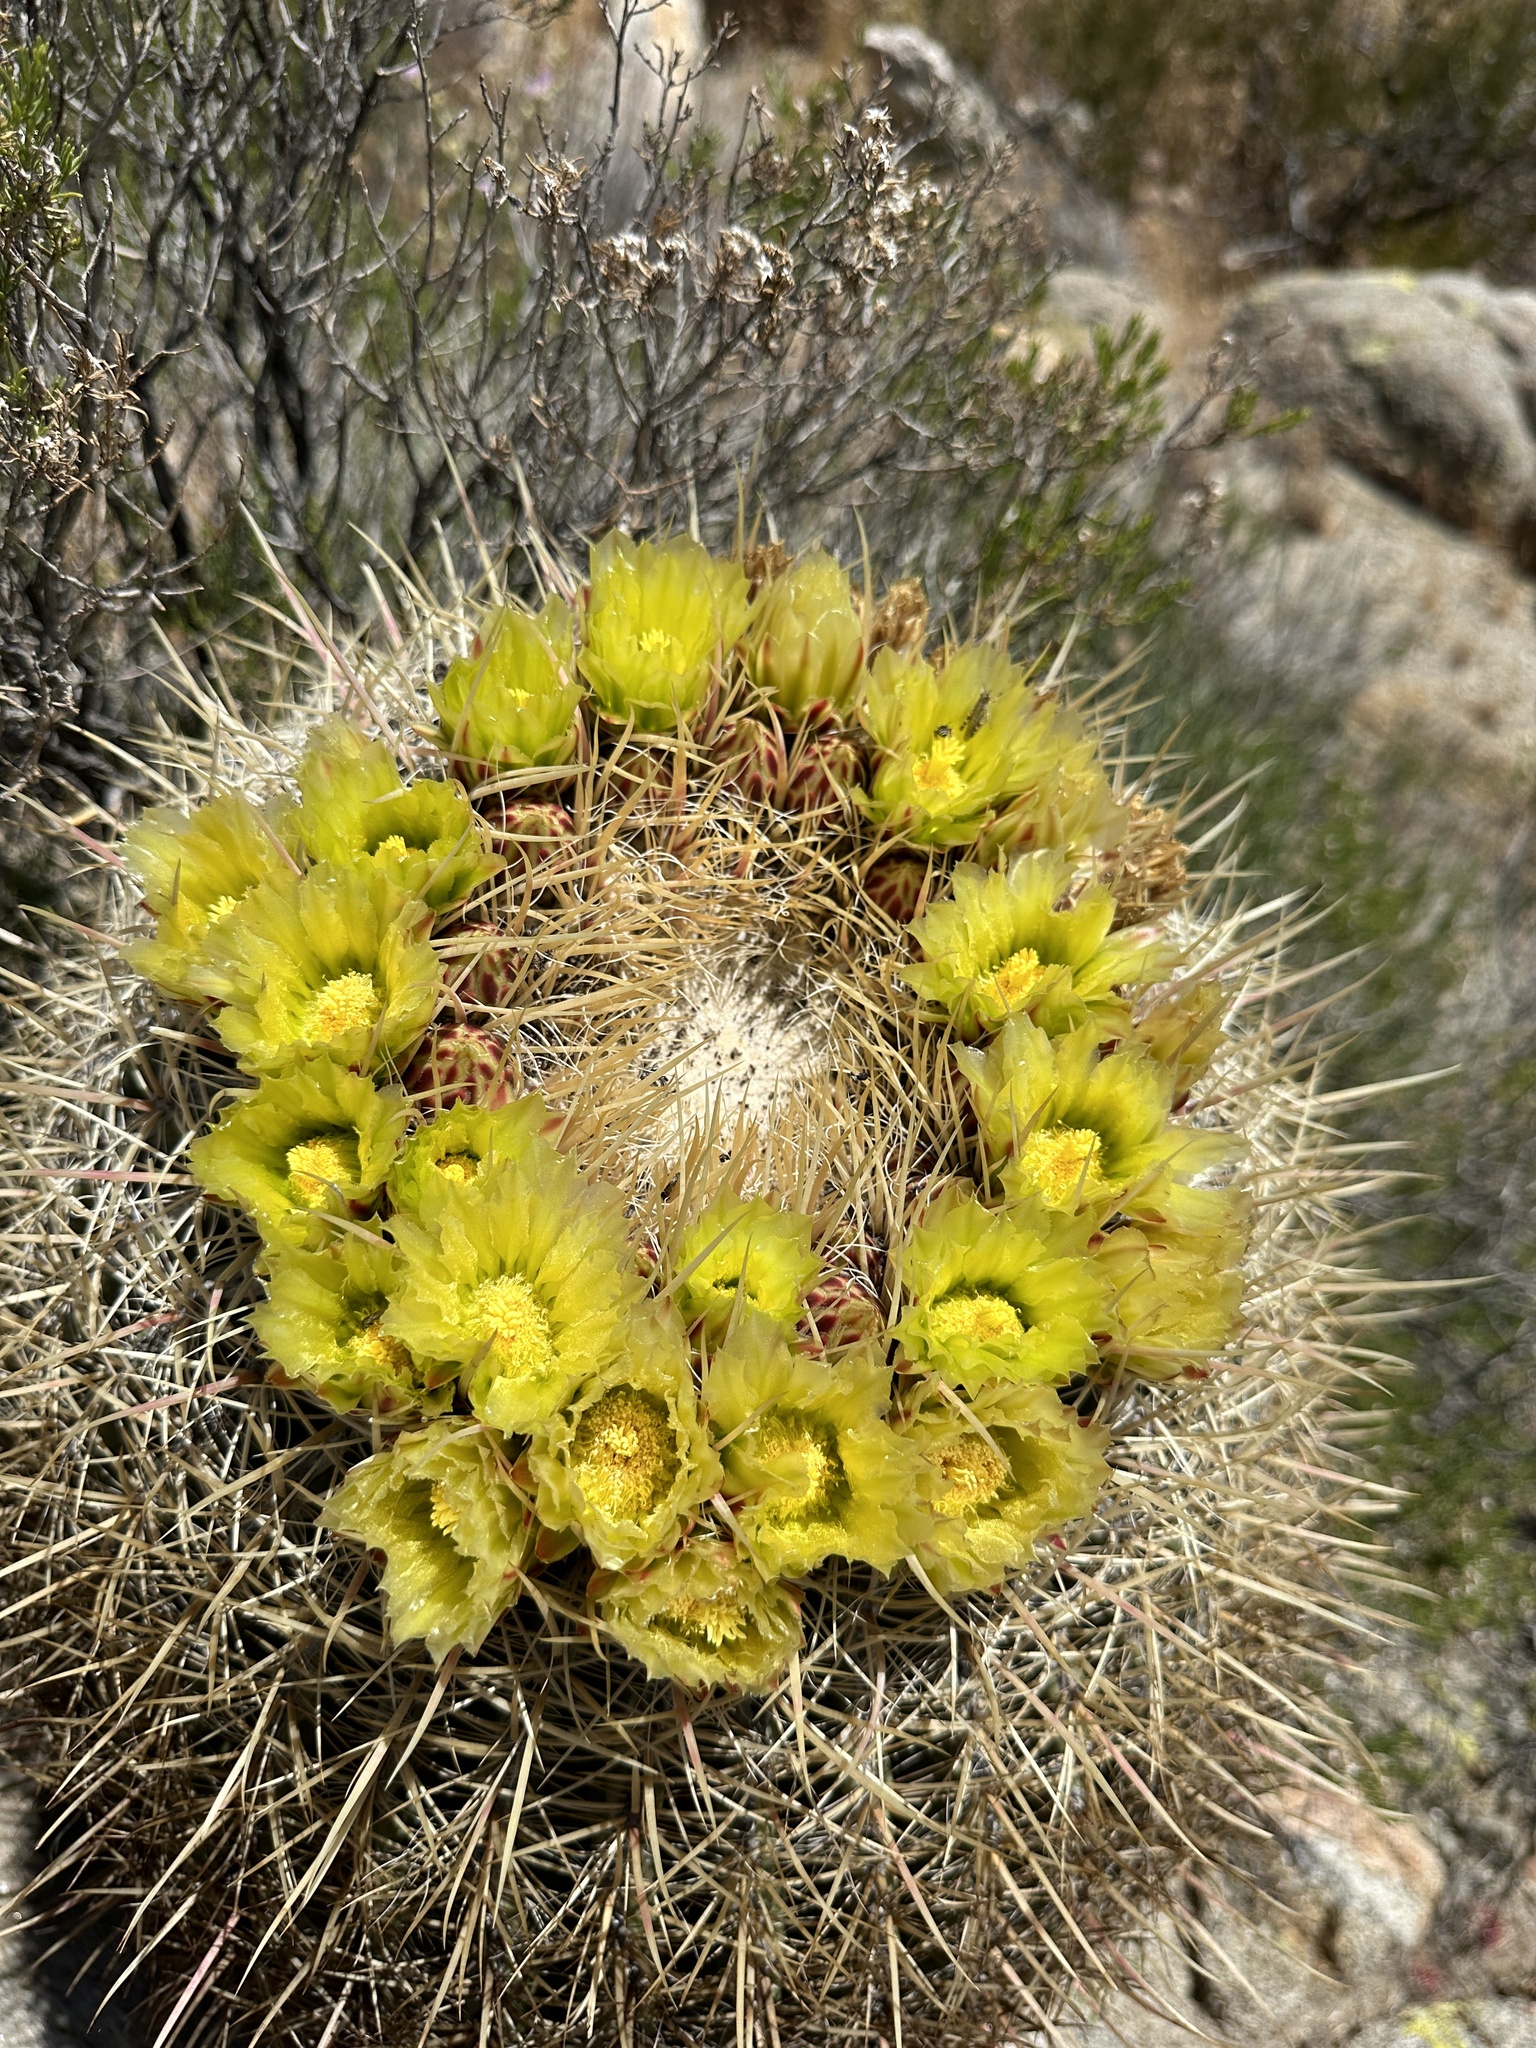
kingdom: Plantae
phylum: Tracheophyta
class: Magnoliopsida
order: Caryophyllales
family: Cactaceae
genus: Ferocactus
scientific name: Ferocactus cylindraceus
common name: California barrel cactus
